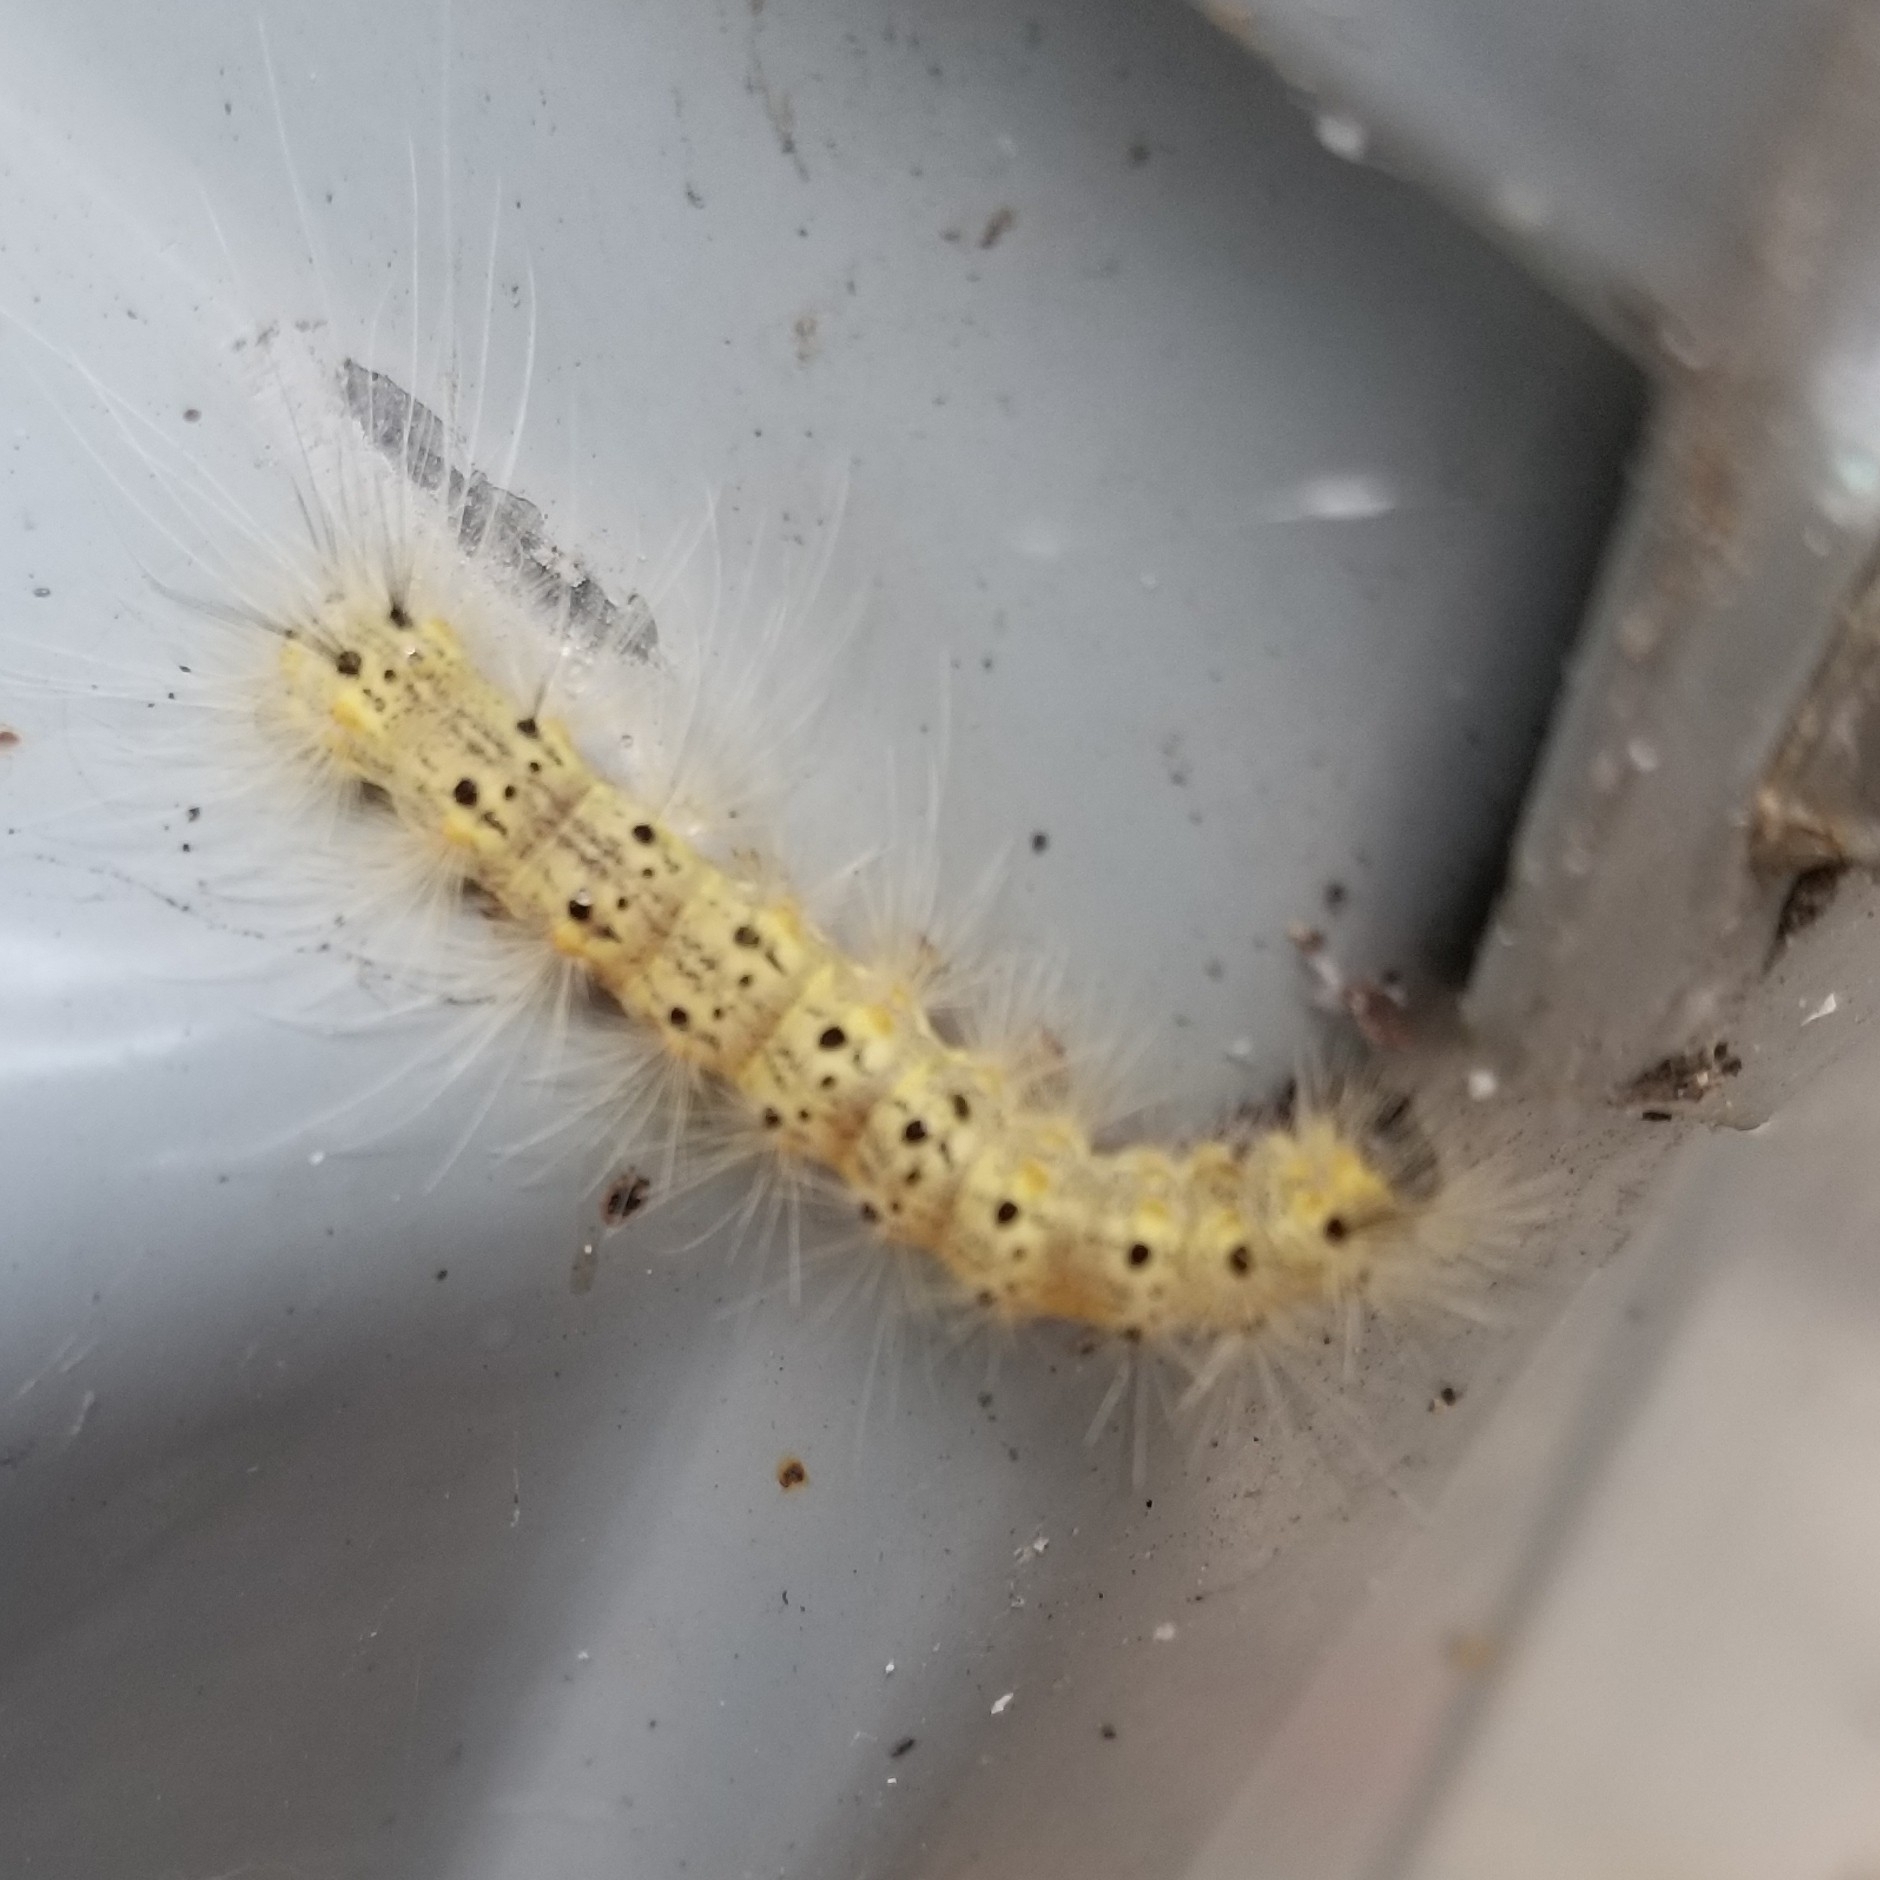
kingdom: Animalia
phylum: Arthropoda
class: Insecta
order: Lepidoptera
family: Erebidae
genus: Hyphantria
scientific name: Hyphantria cunea
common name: American white moth
